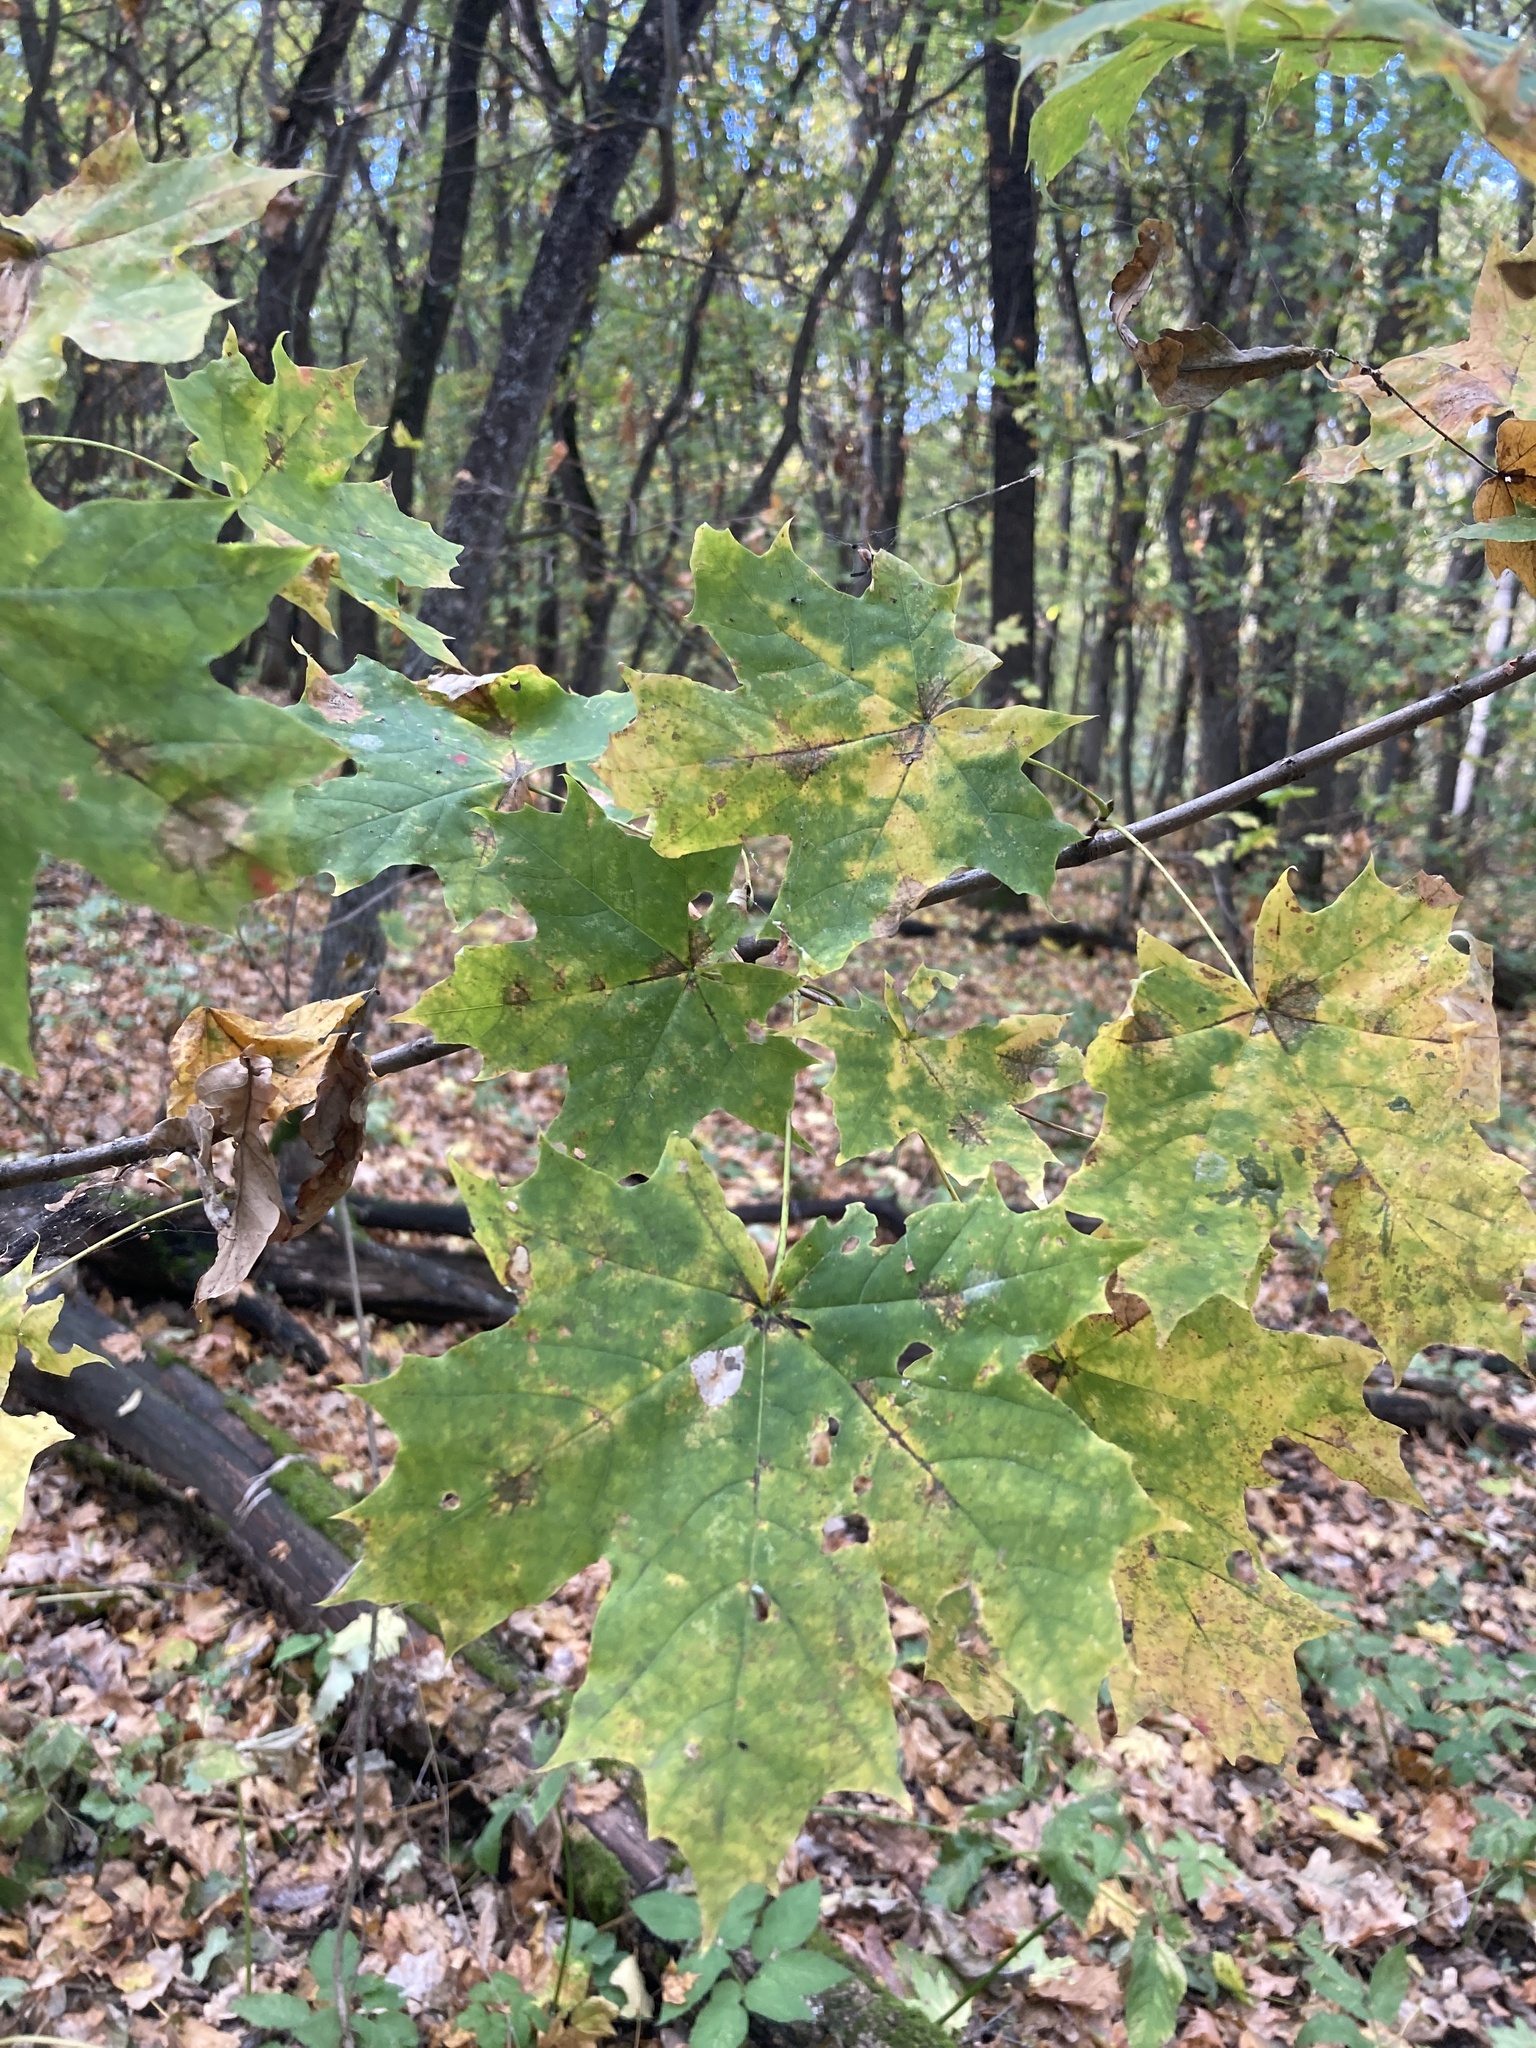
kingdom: Plantae
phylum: Tracheophyta
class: Magnoliopsida
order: Sapindales
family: Sapindaceae
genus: Acer
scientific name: Acer platanoides
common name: Norway maple
